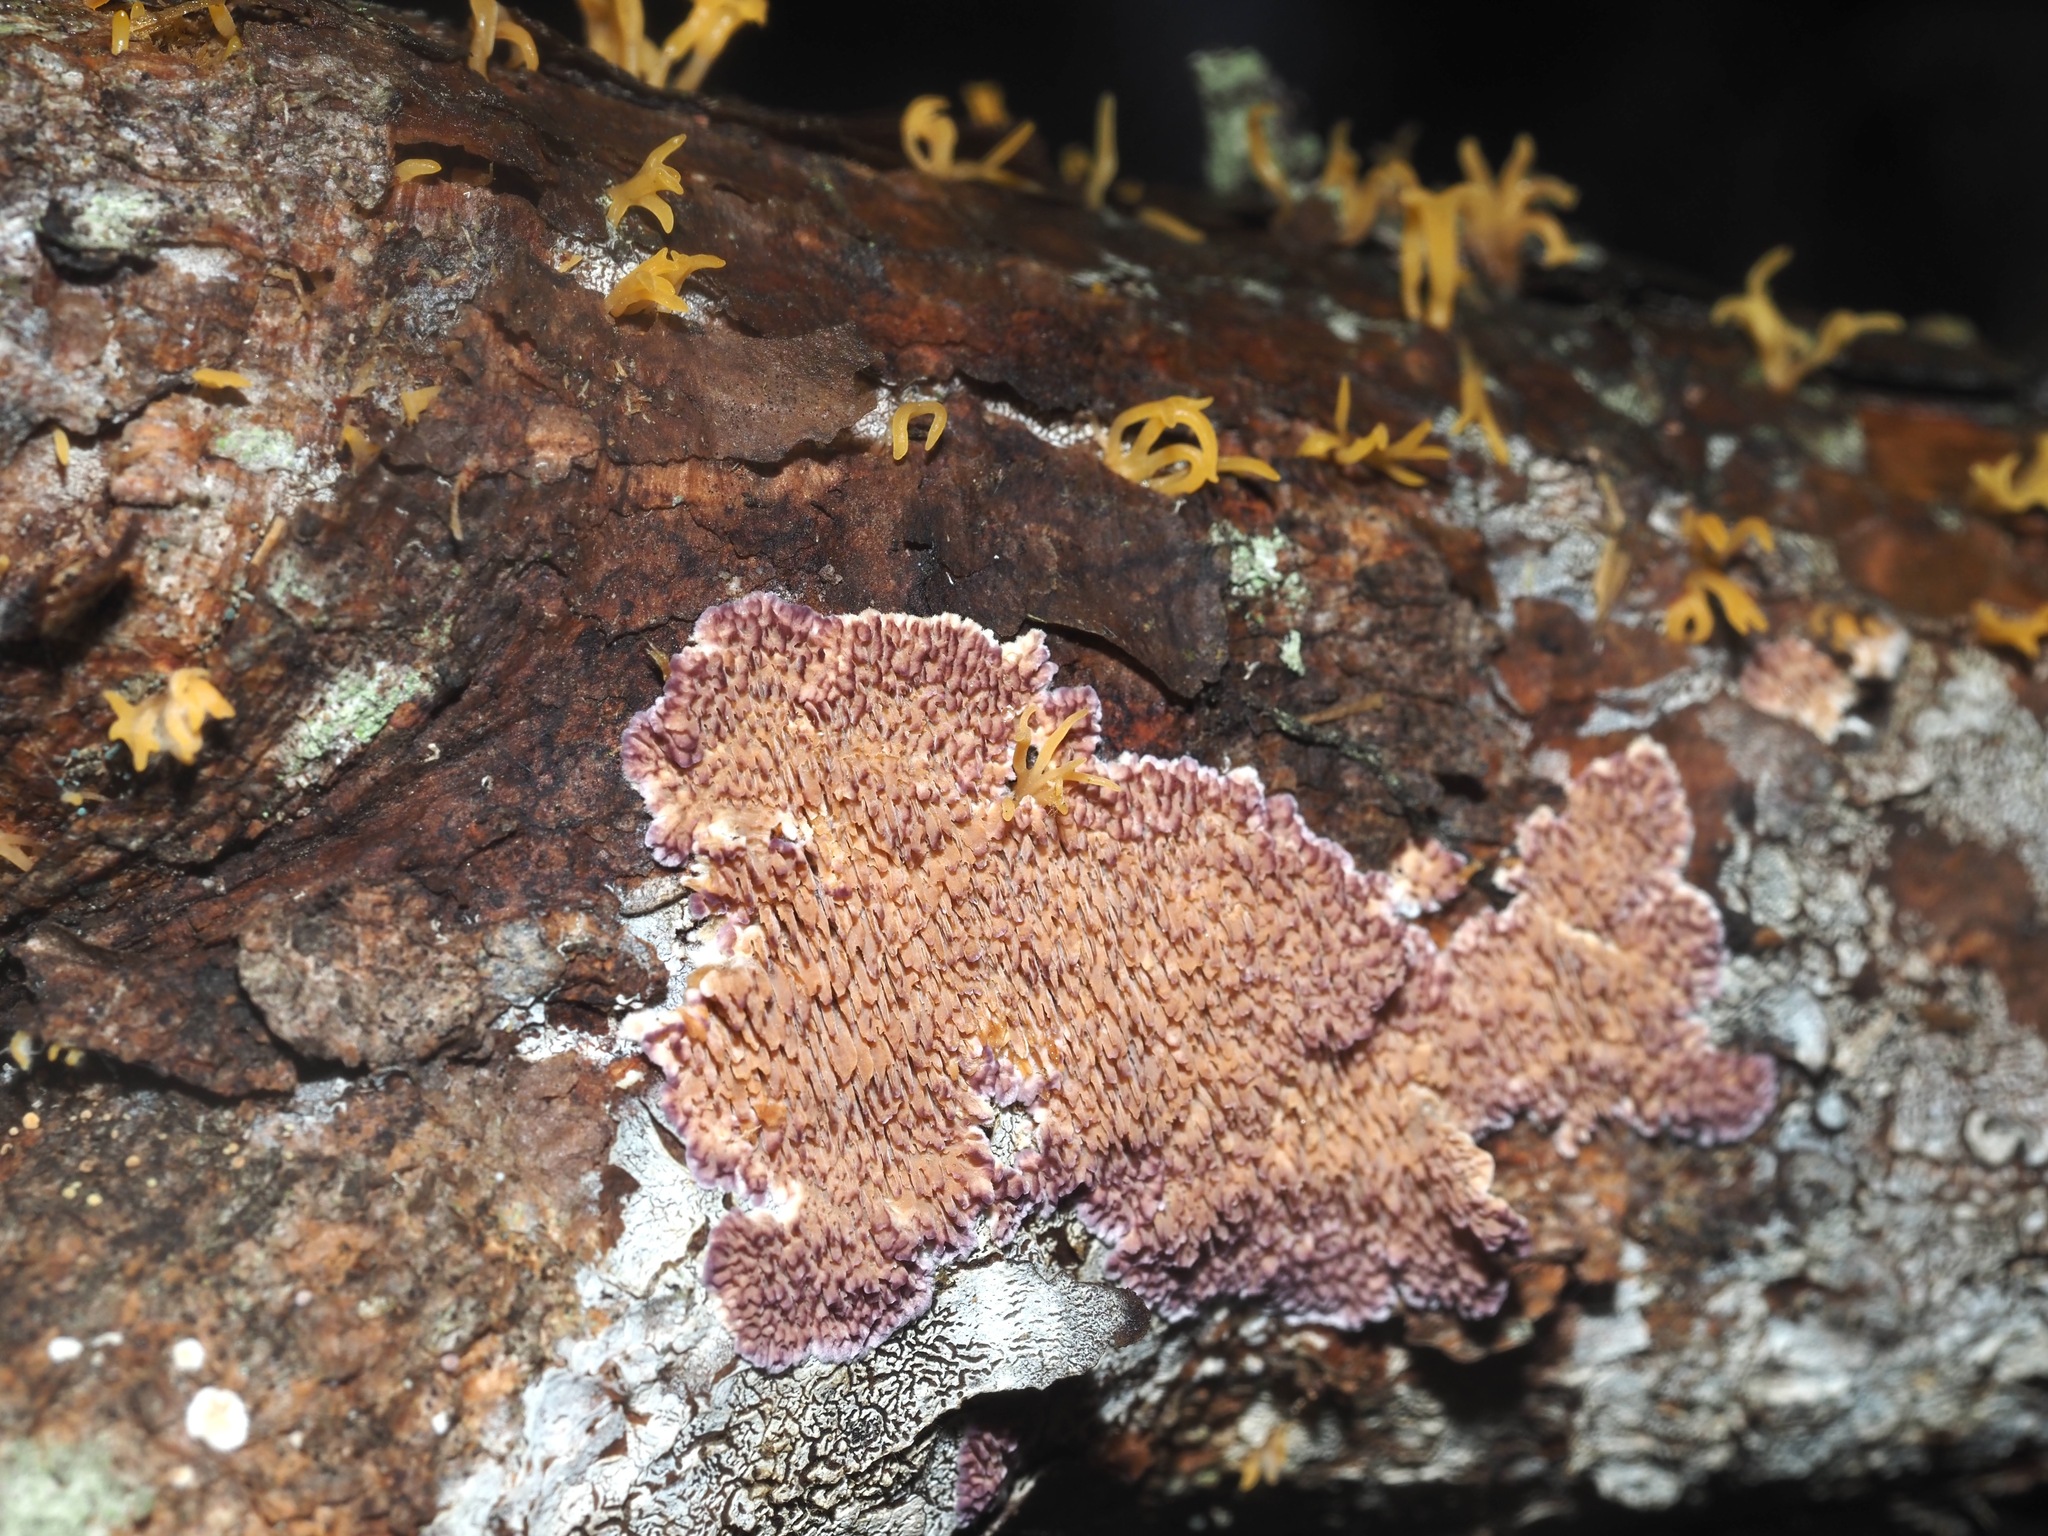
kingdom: Fungi
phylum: Basidiomycota
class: Agaricomycetes
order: Hymenochaetales
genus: Trichaptum
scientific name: Trichaptum abietinum
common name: Purplepore bracket
